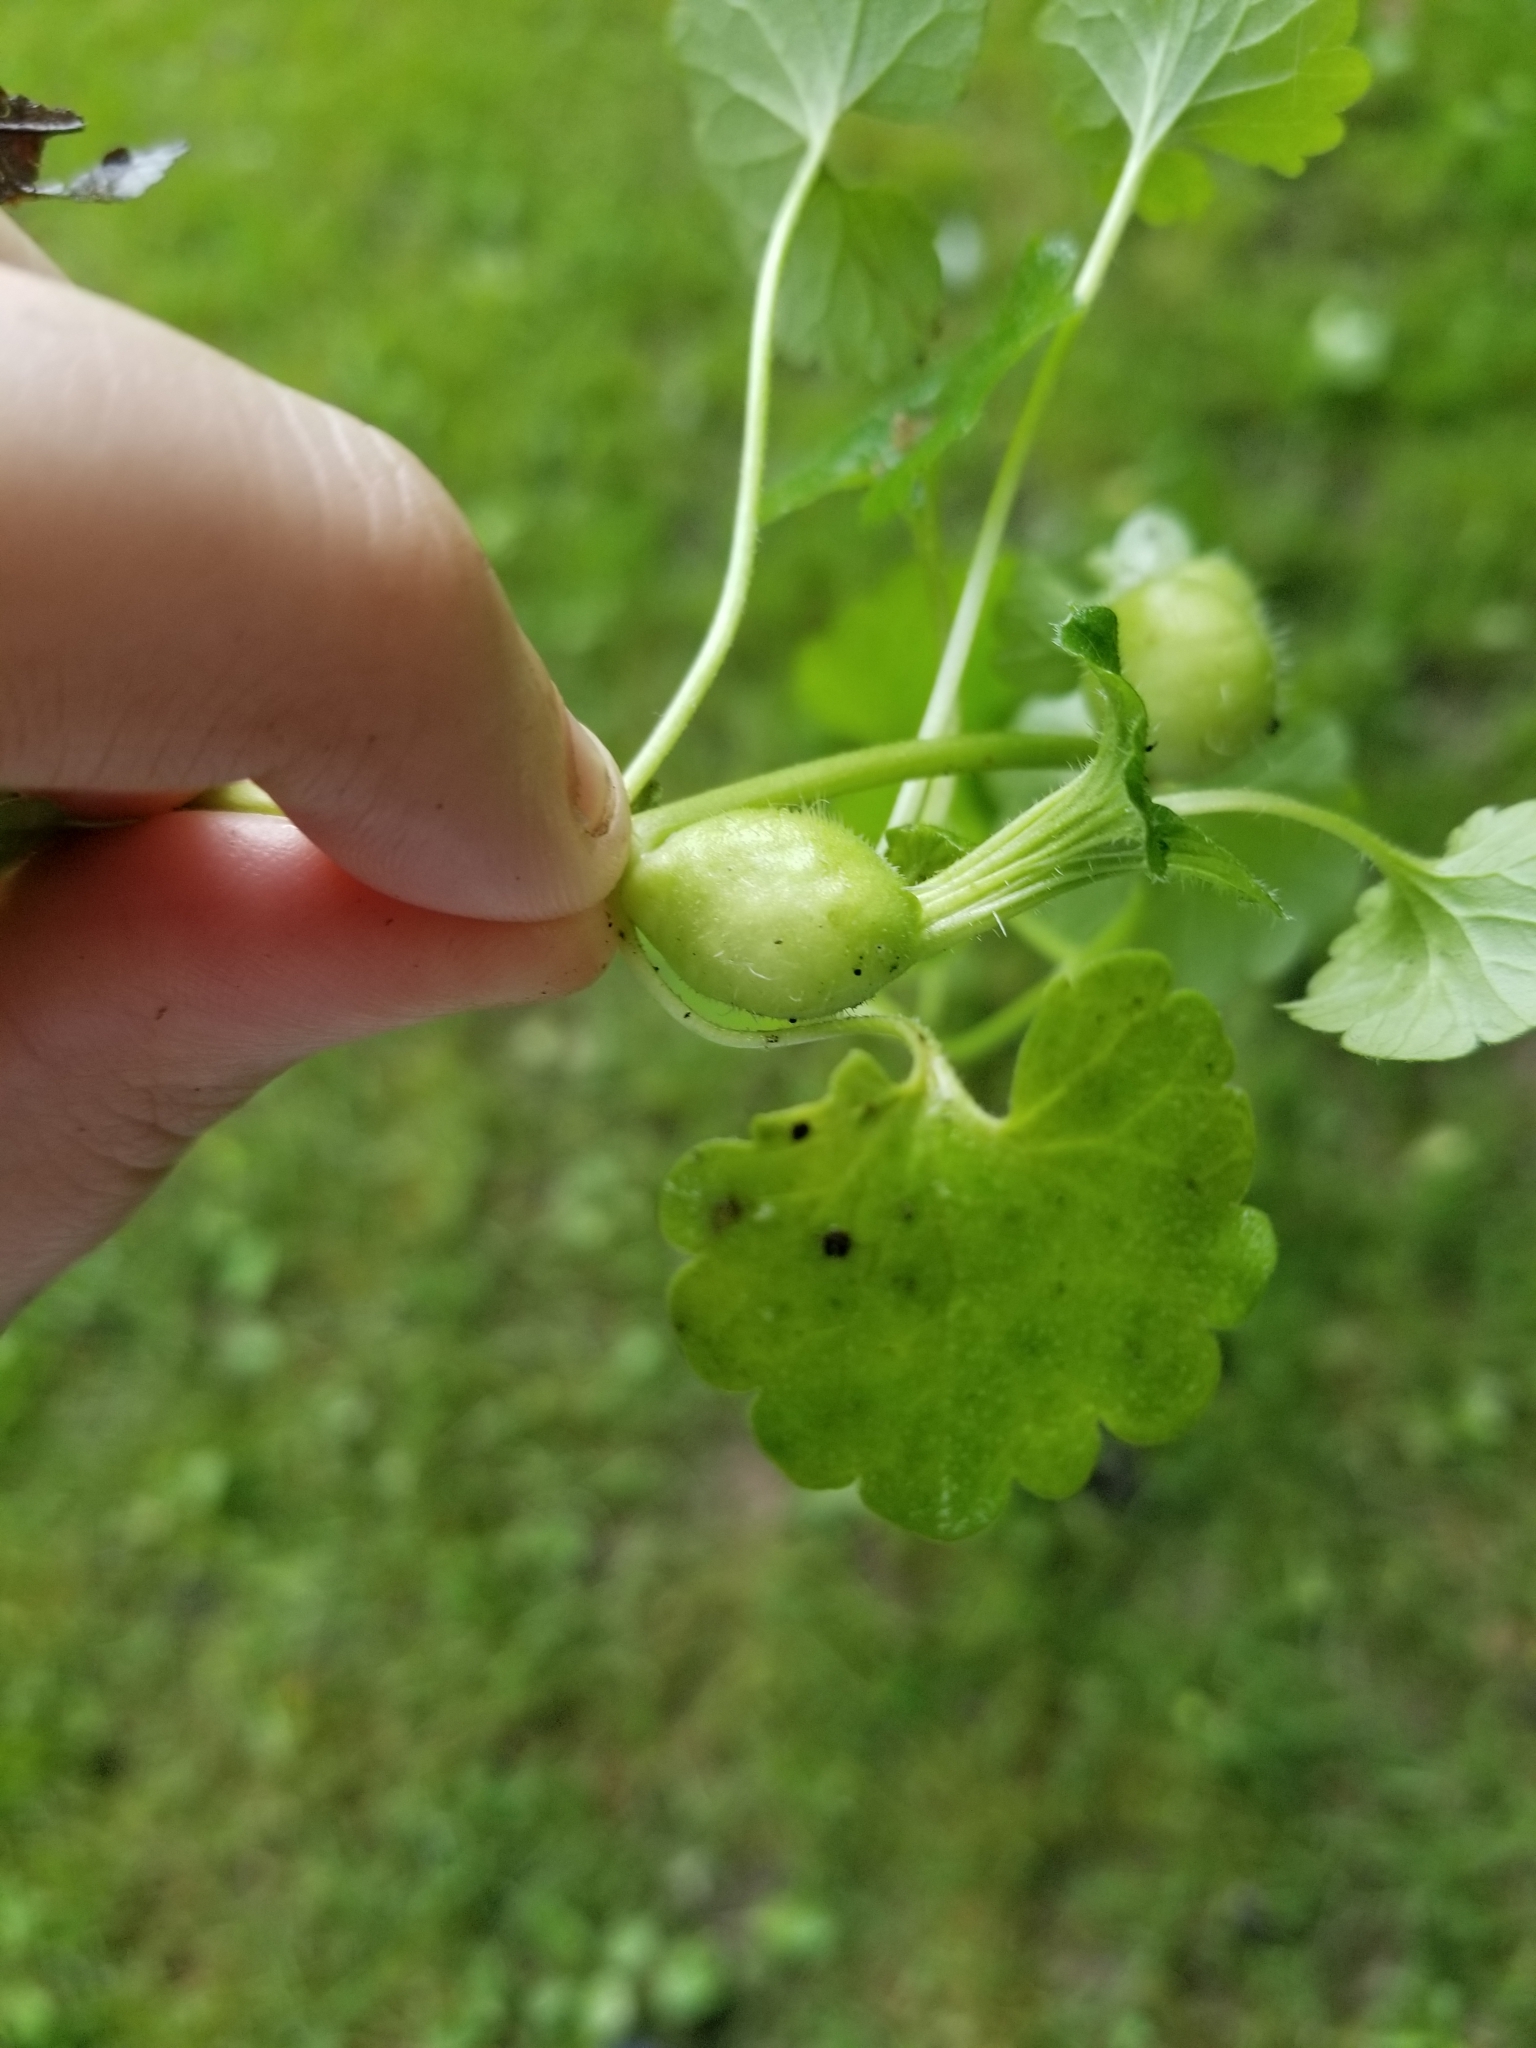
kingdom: Animalia
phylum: Arthropoda
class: Insecta
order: Hymenoptera
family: Cynipidae
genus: Liposthenes
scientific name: Liposthenes glechomae
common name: Gall wasp
